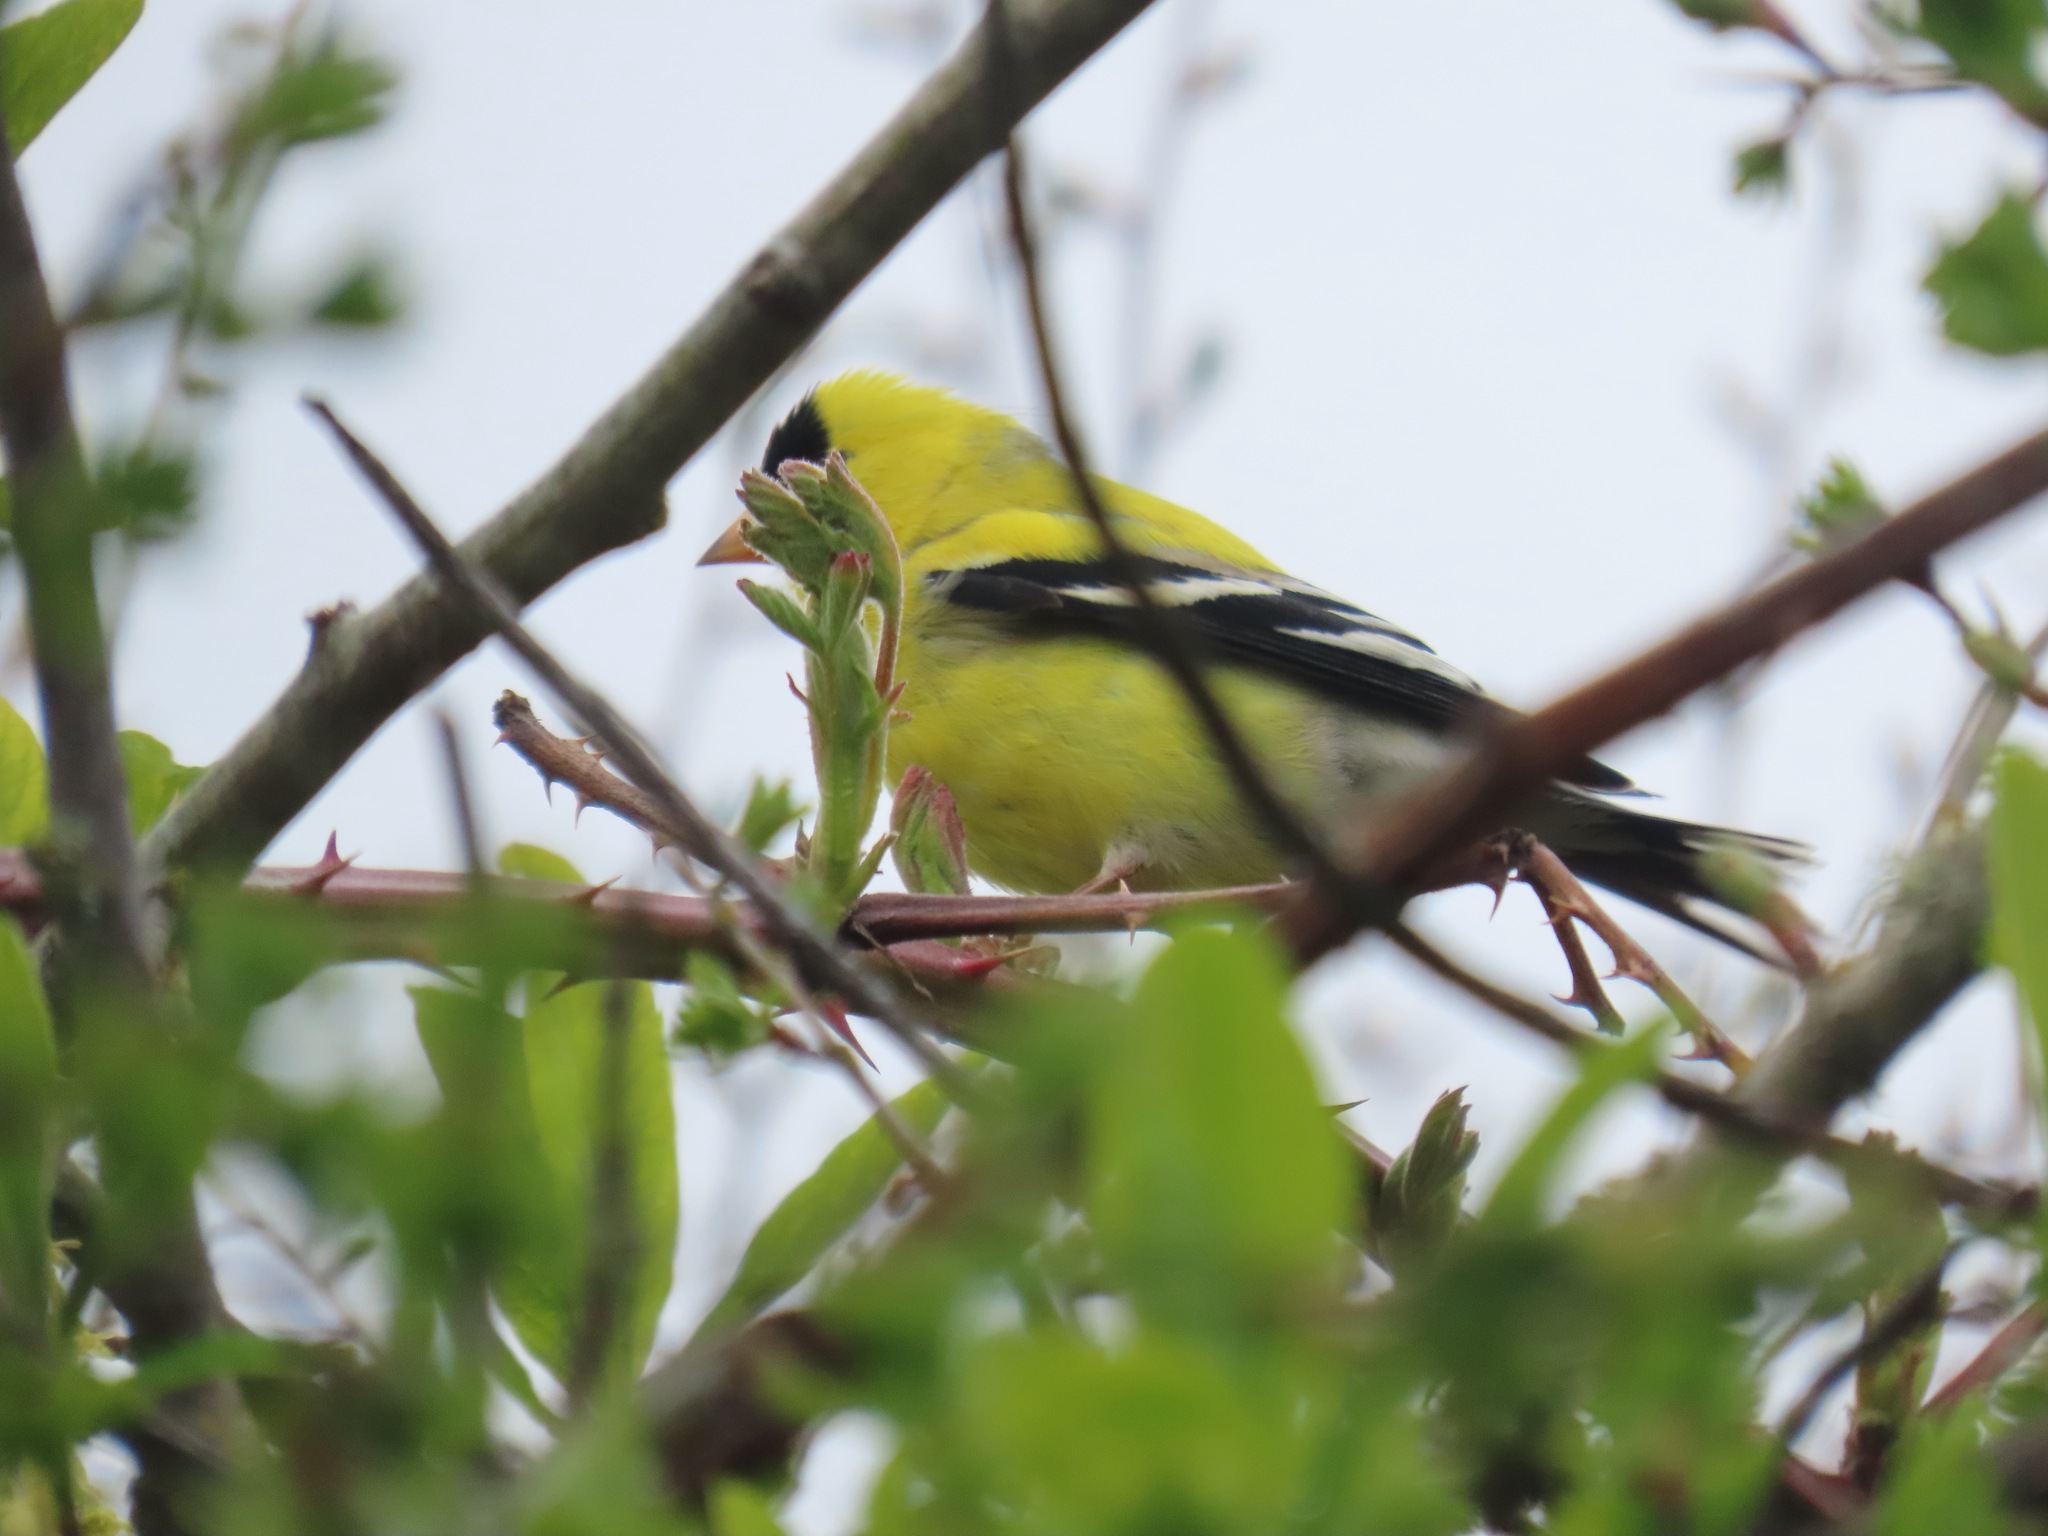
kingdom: Animalia
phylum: Chordata
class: Aves
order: Passeriformes
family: Fringillidae
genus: Spinus
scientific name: Spinus tristis
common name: American goldfinch
